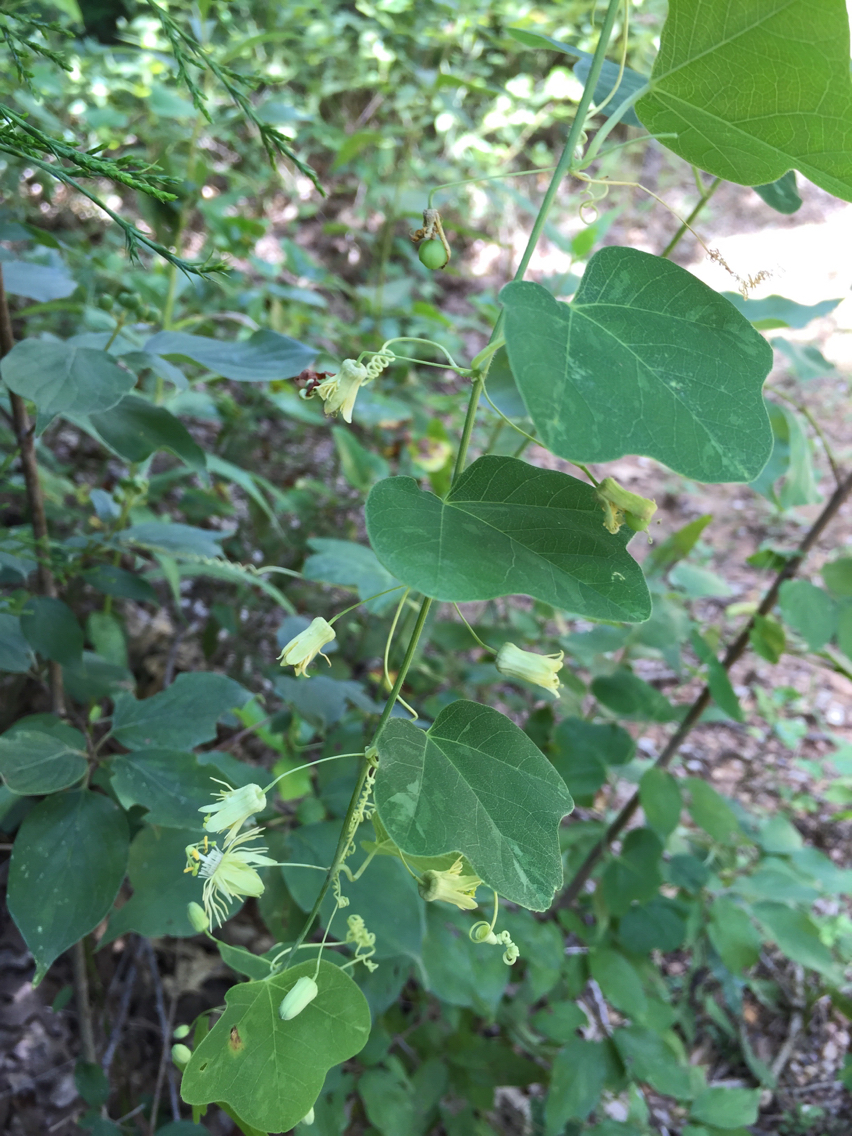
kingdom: Plantae
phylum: Tracheophyta
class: Magnoliopsida
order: Malpighiales
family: Passifloraceae
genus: Passiflora
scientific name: Passiflora lutea
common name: Yellow passionflower
